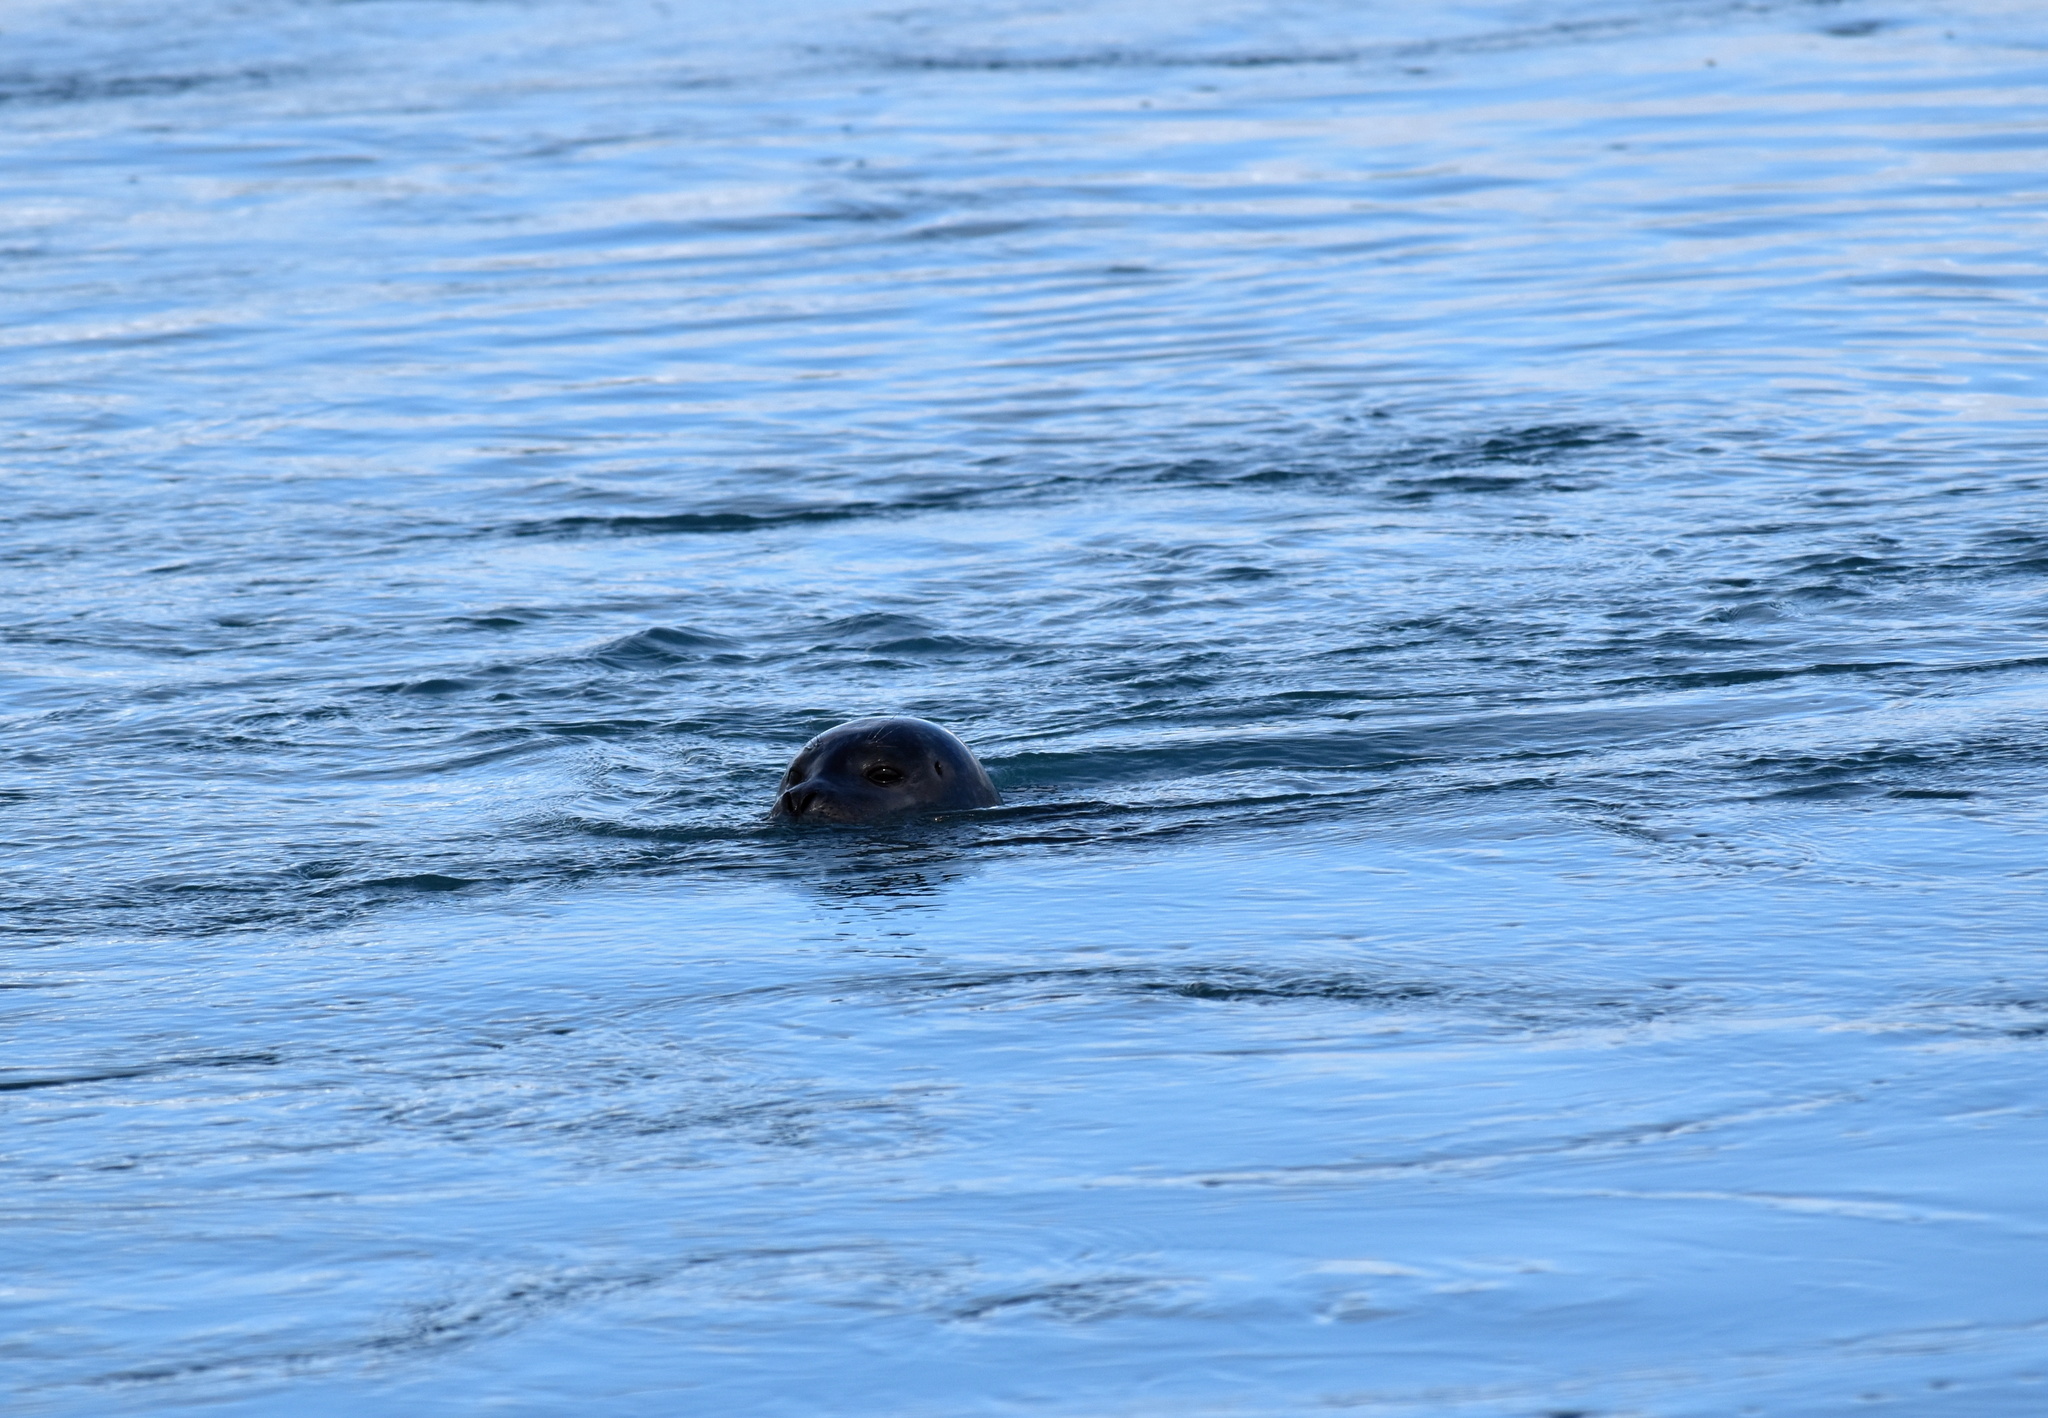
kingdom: Animalia
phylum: Chordata
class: Mammalia
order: Carnivora
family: Phocidae
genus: Phoca
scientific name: Phoca vitulina
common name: Harbor seal
